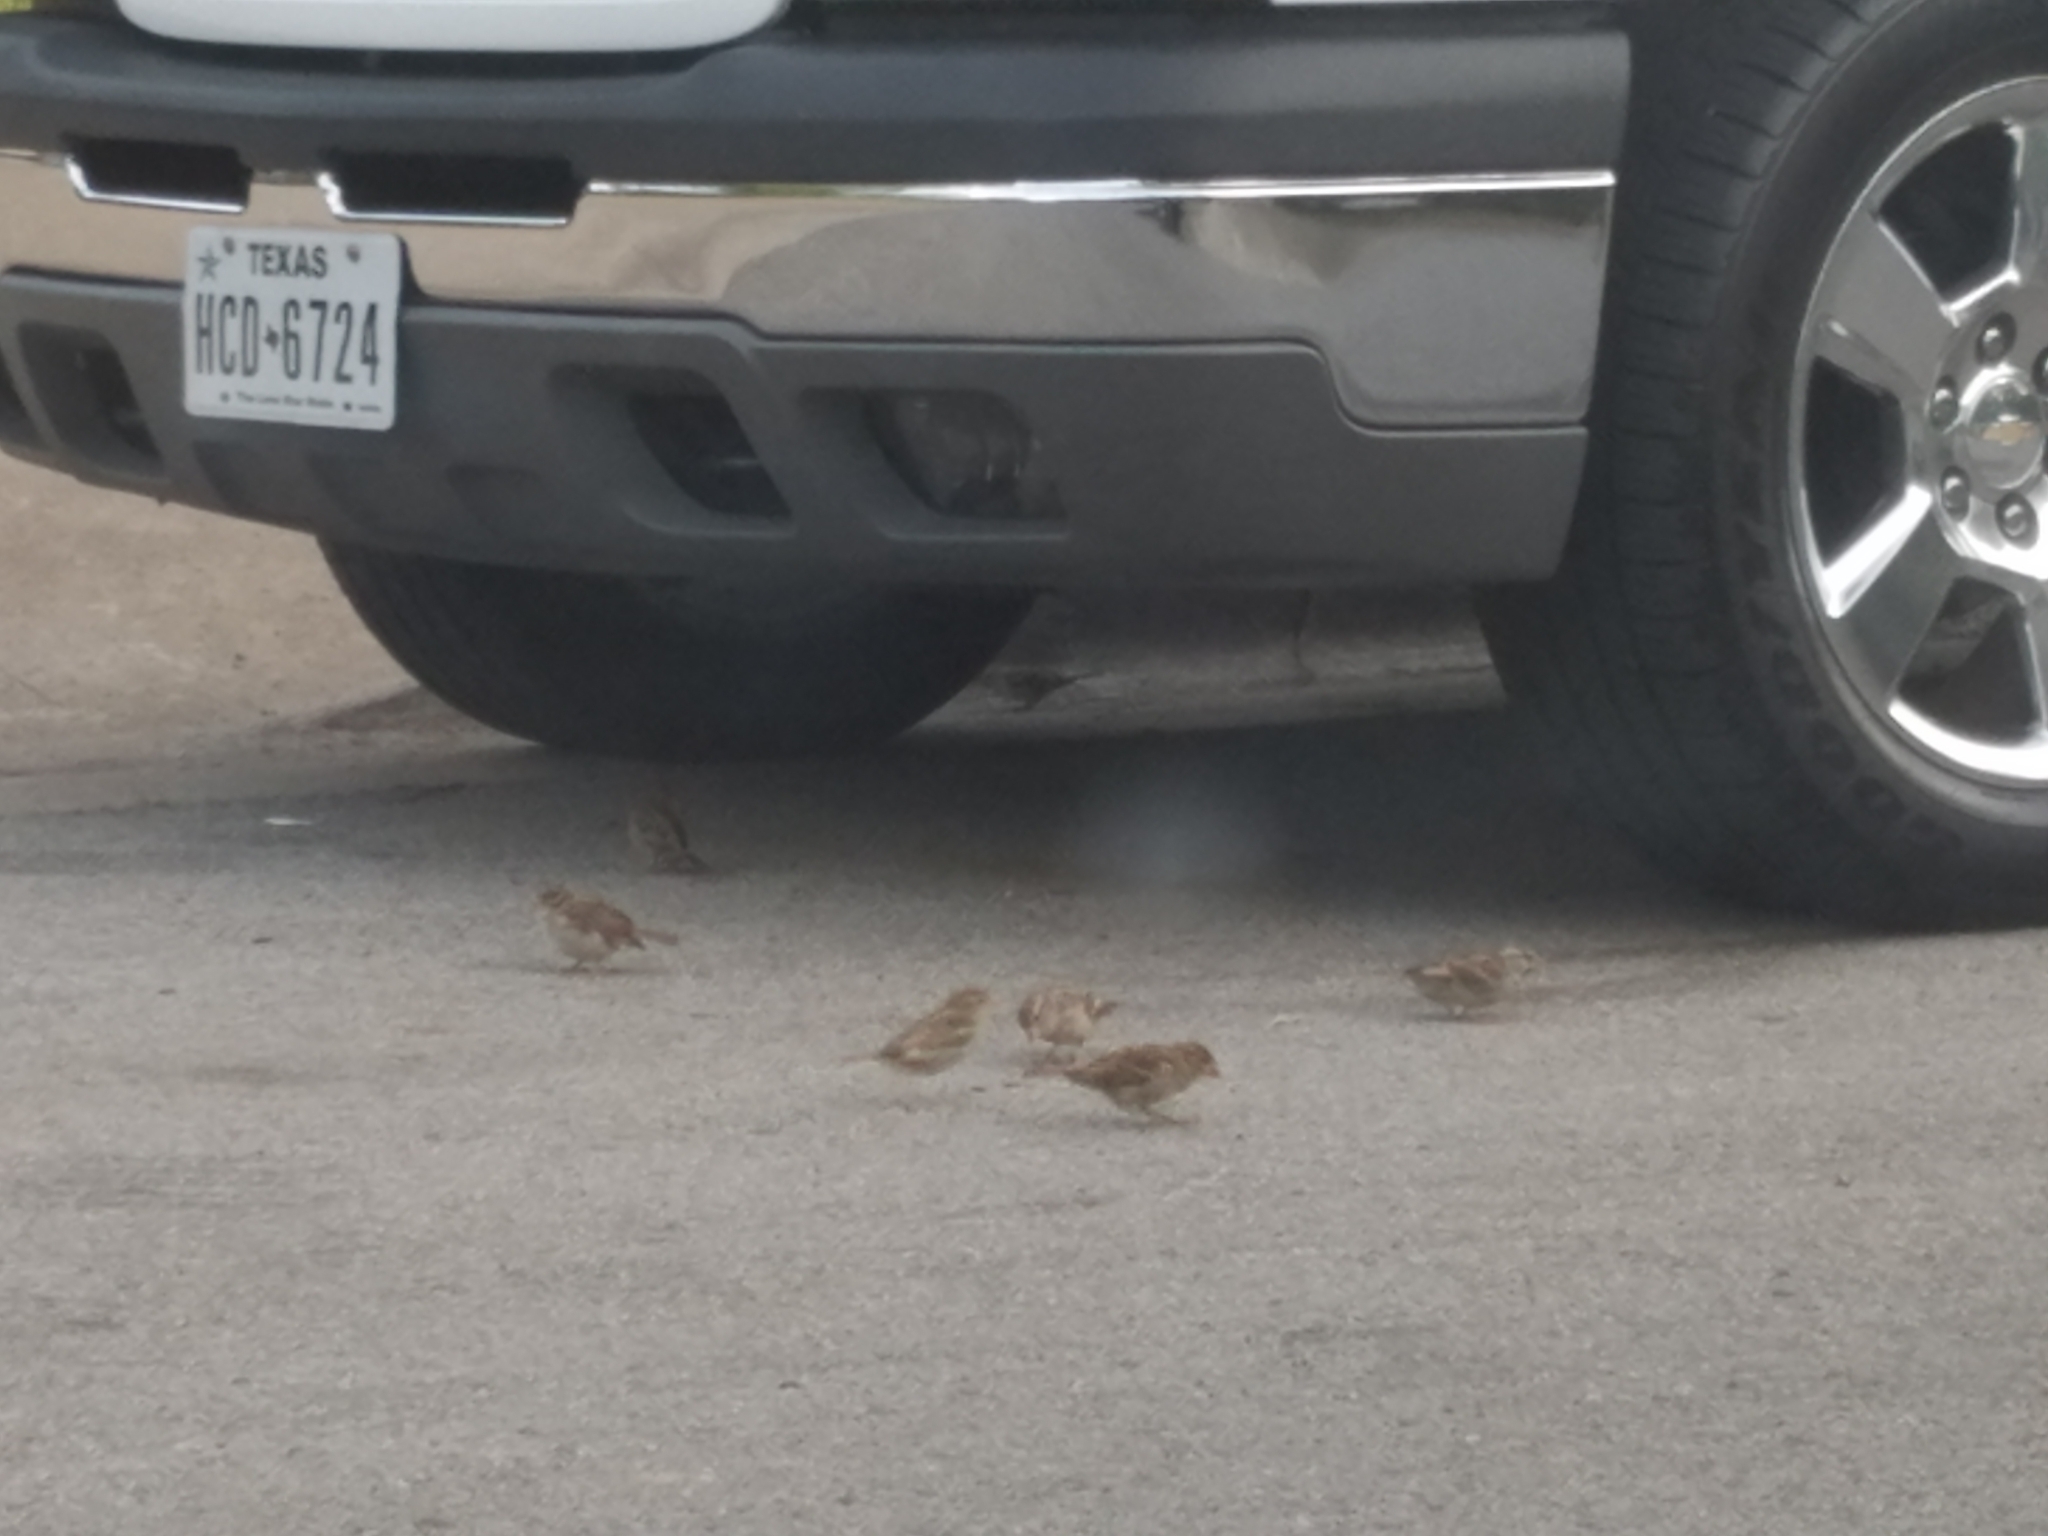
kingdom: Animalia
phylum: Chordata
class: Aves
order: Passeriformes
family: Passeridae
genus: Passer
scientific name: Passer domesticus
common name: House sparrow
